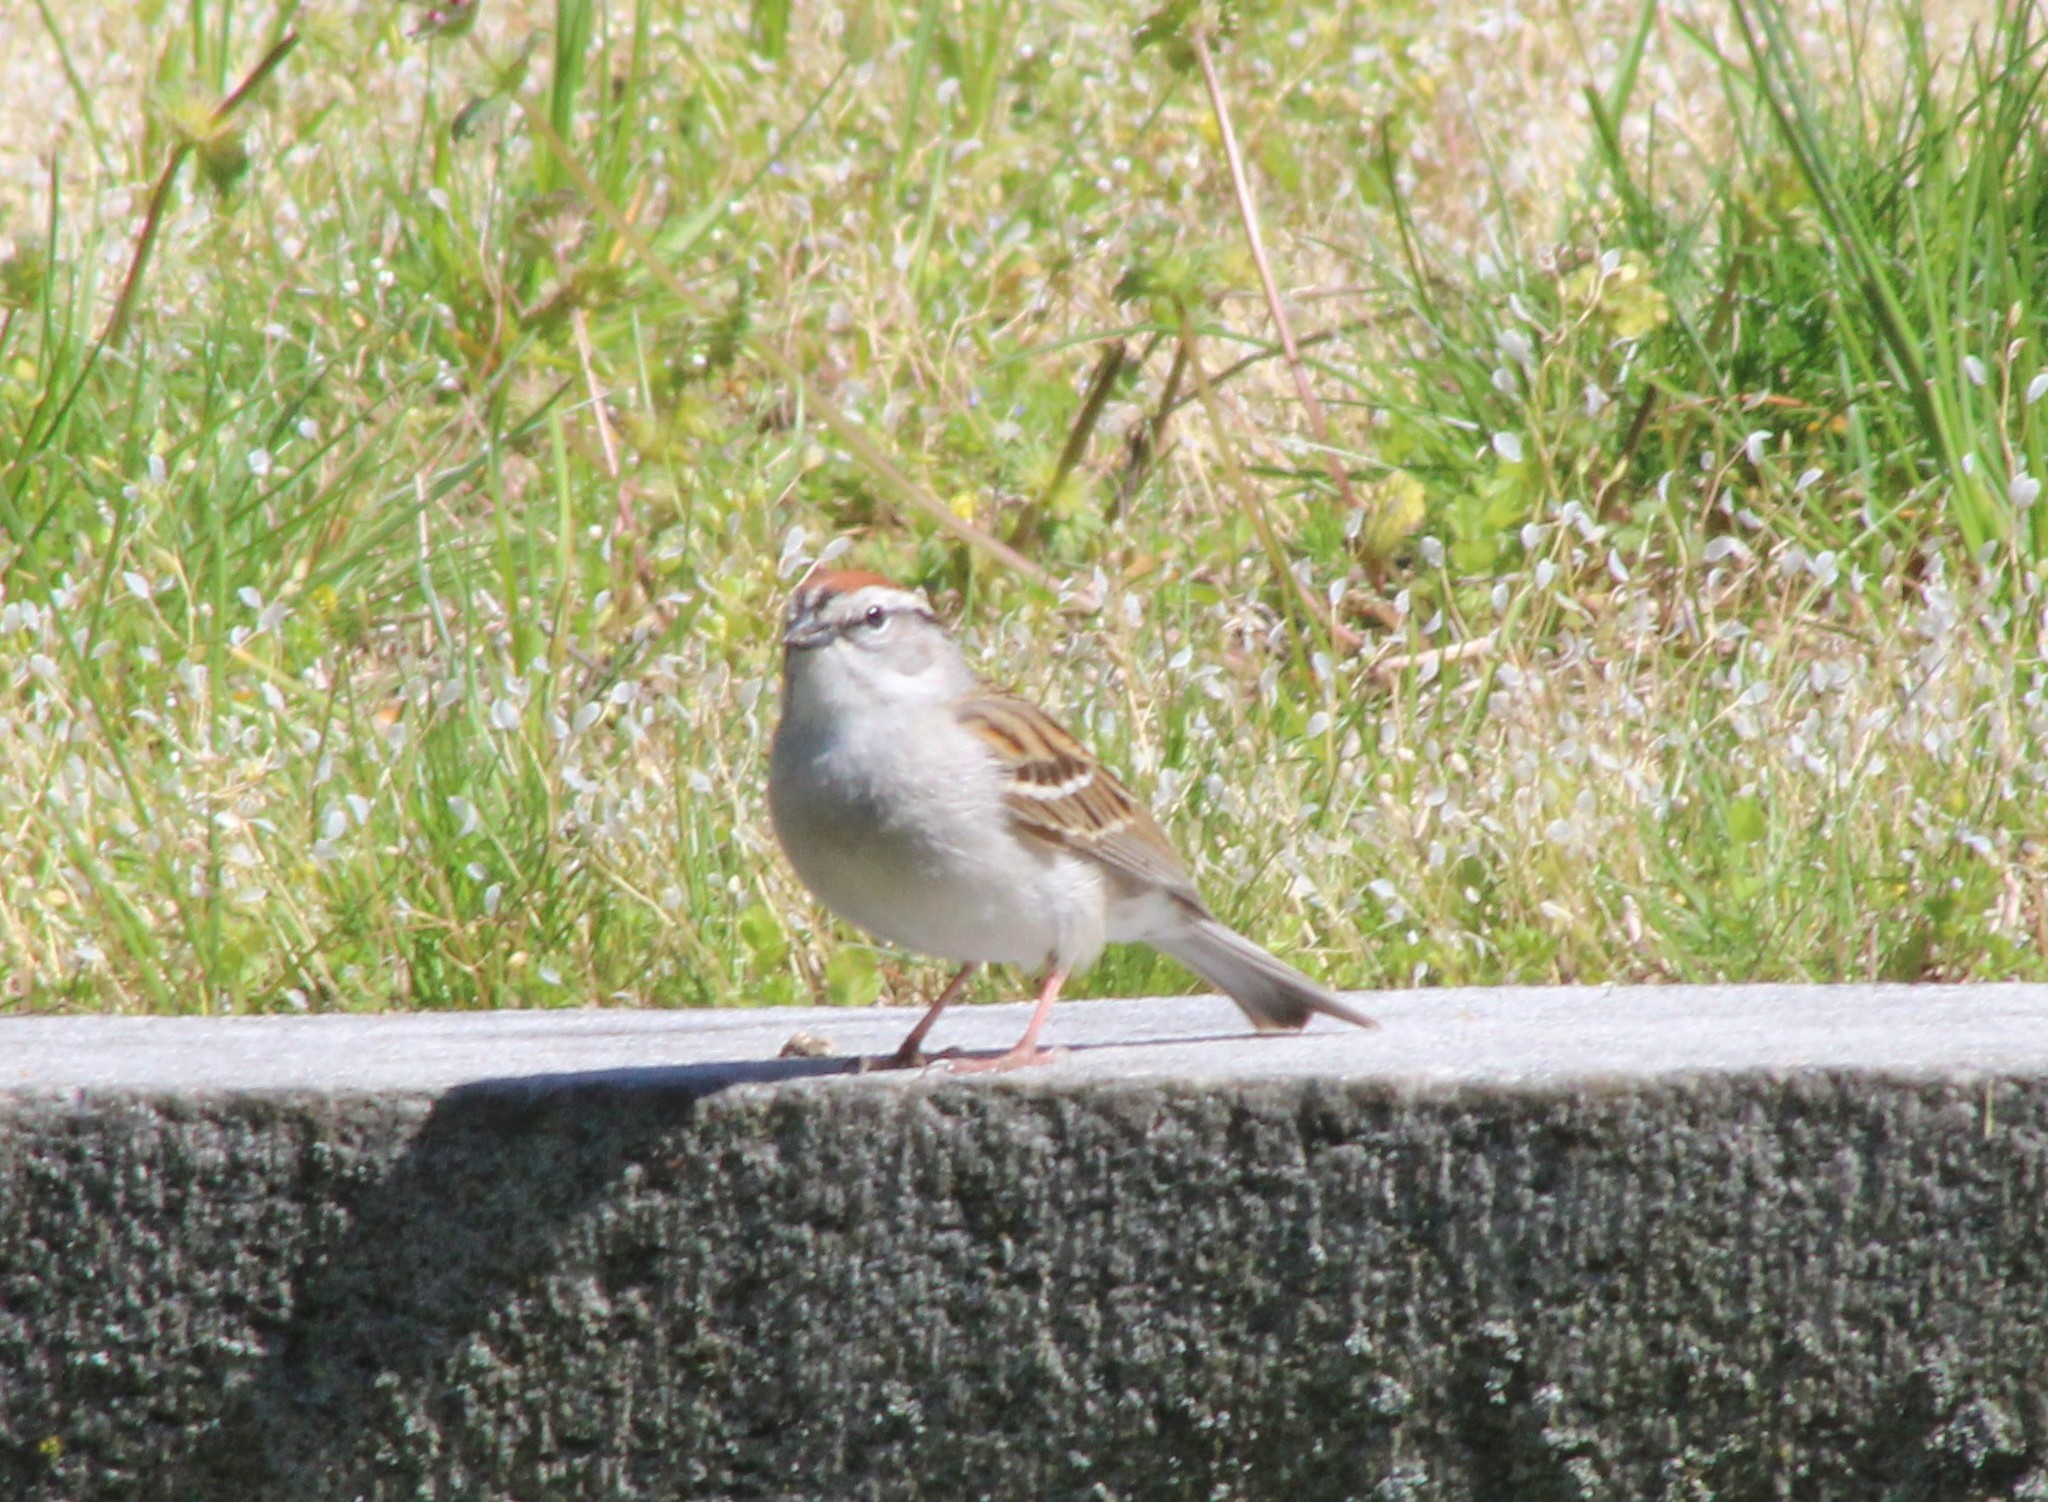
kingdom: Animalia
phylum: Chordata
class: Aves
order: Passeriformes
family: Passerellidae
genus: Spizella
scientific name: Spizella passerina
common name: Chipping sparrow
